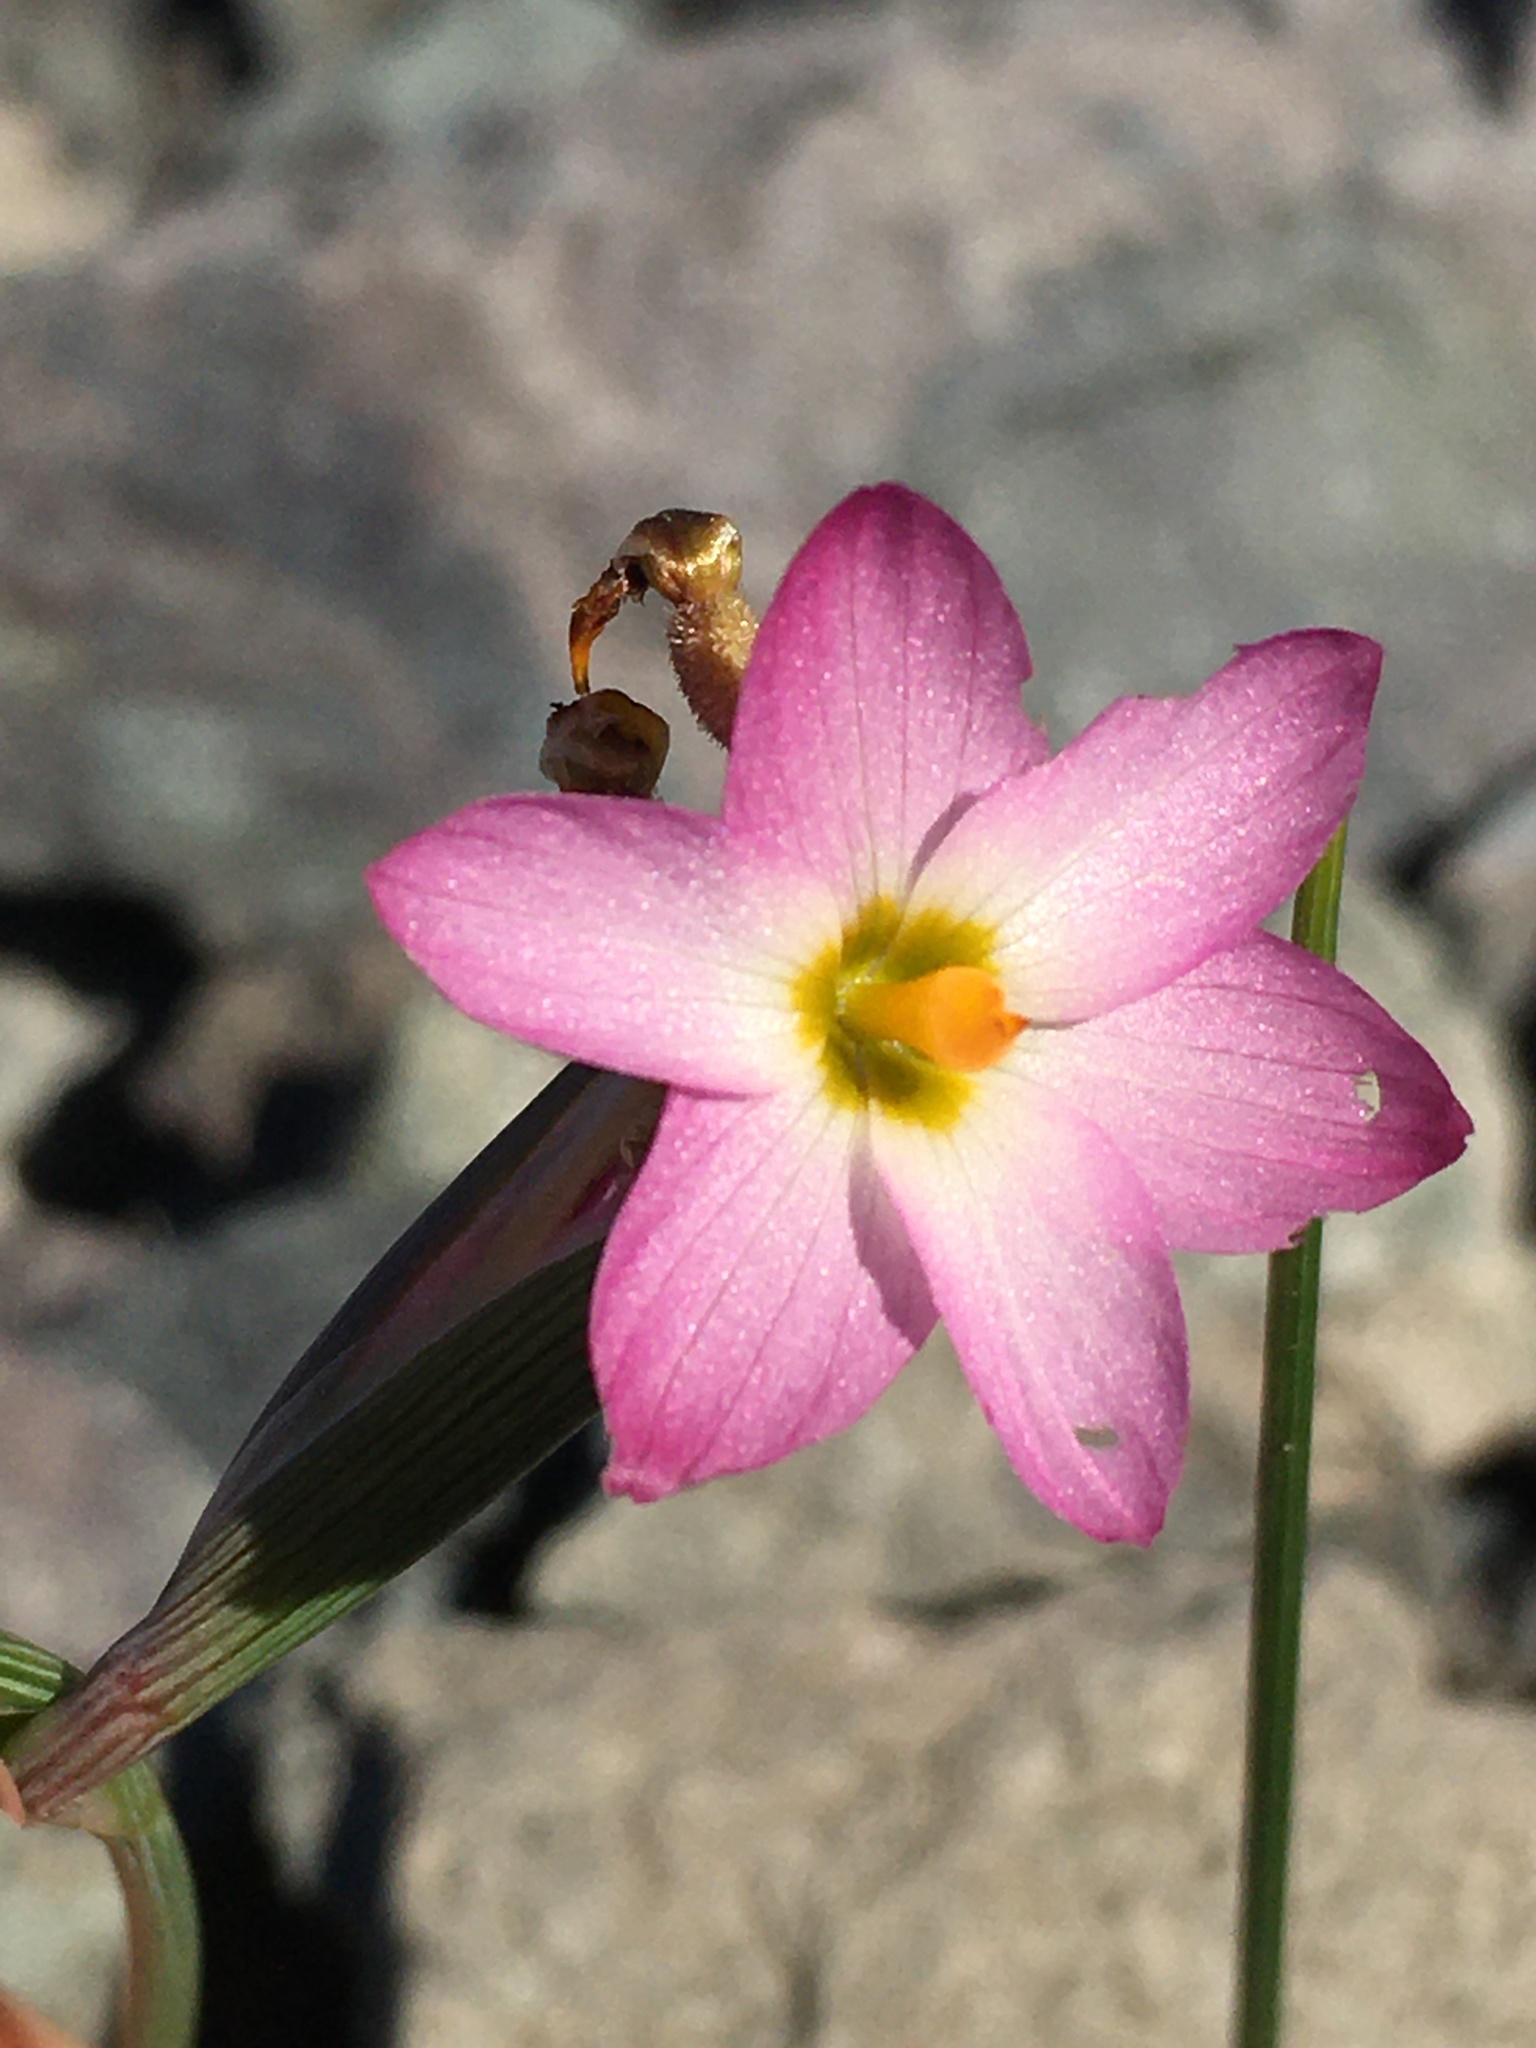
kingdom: Plantae
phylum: Tracheophyta
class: Liliopsida
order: Asparagales
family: Iridaceae
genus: Olsynium
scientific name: Olsynium scirpoideum
